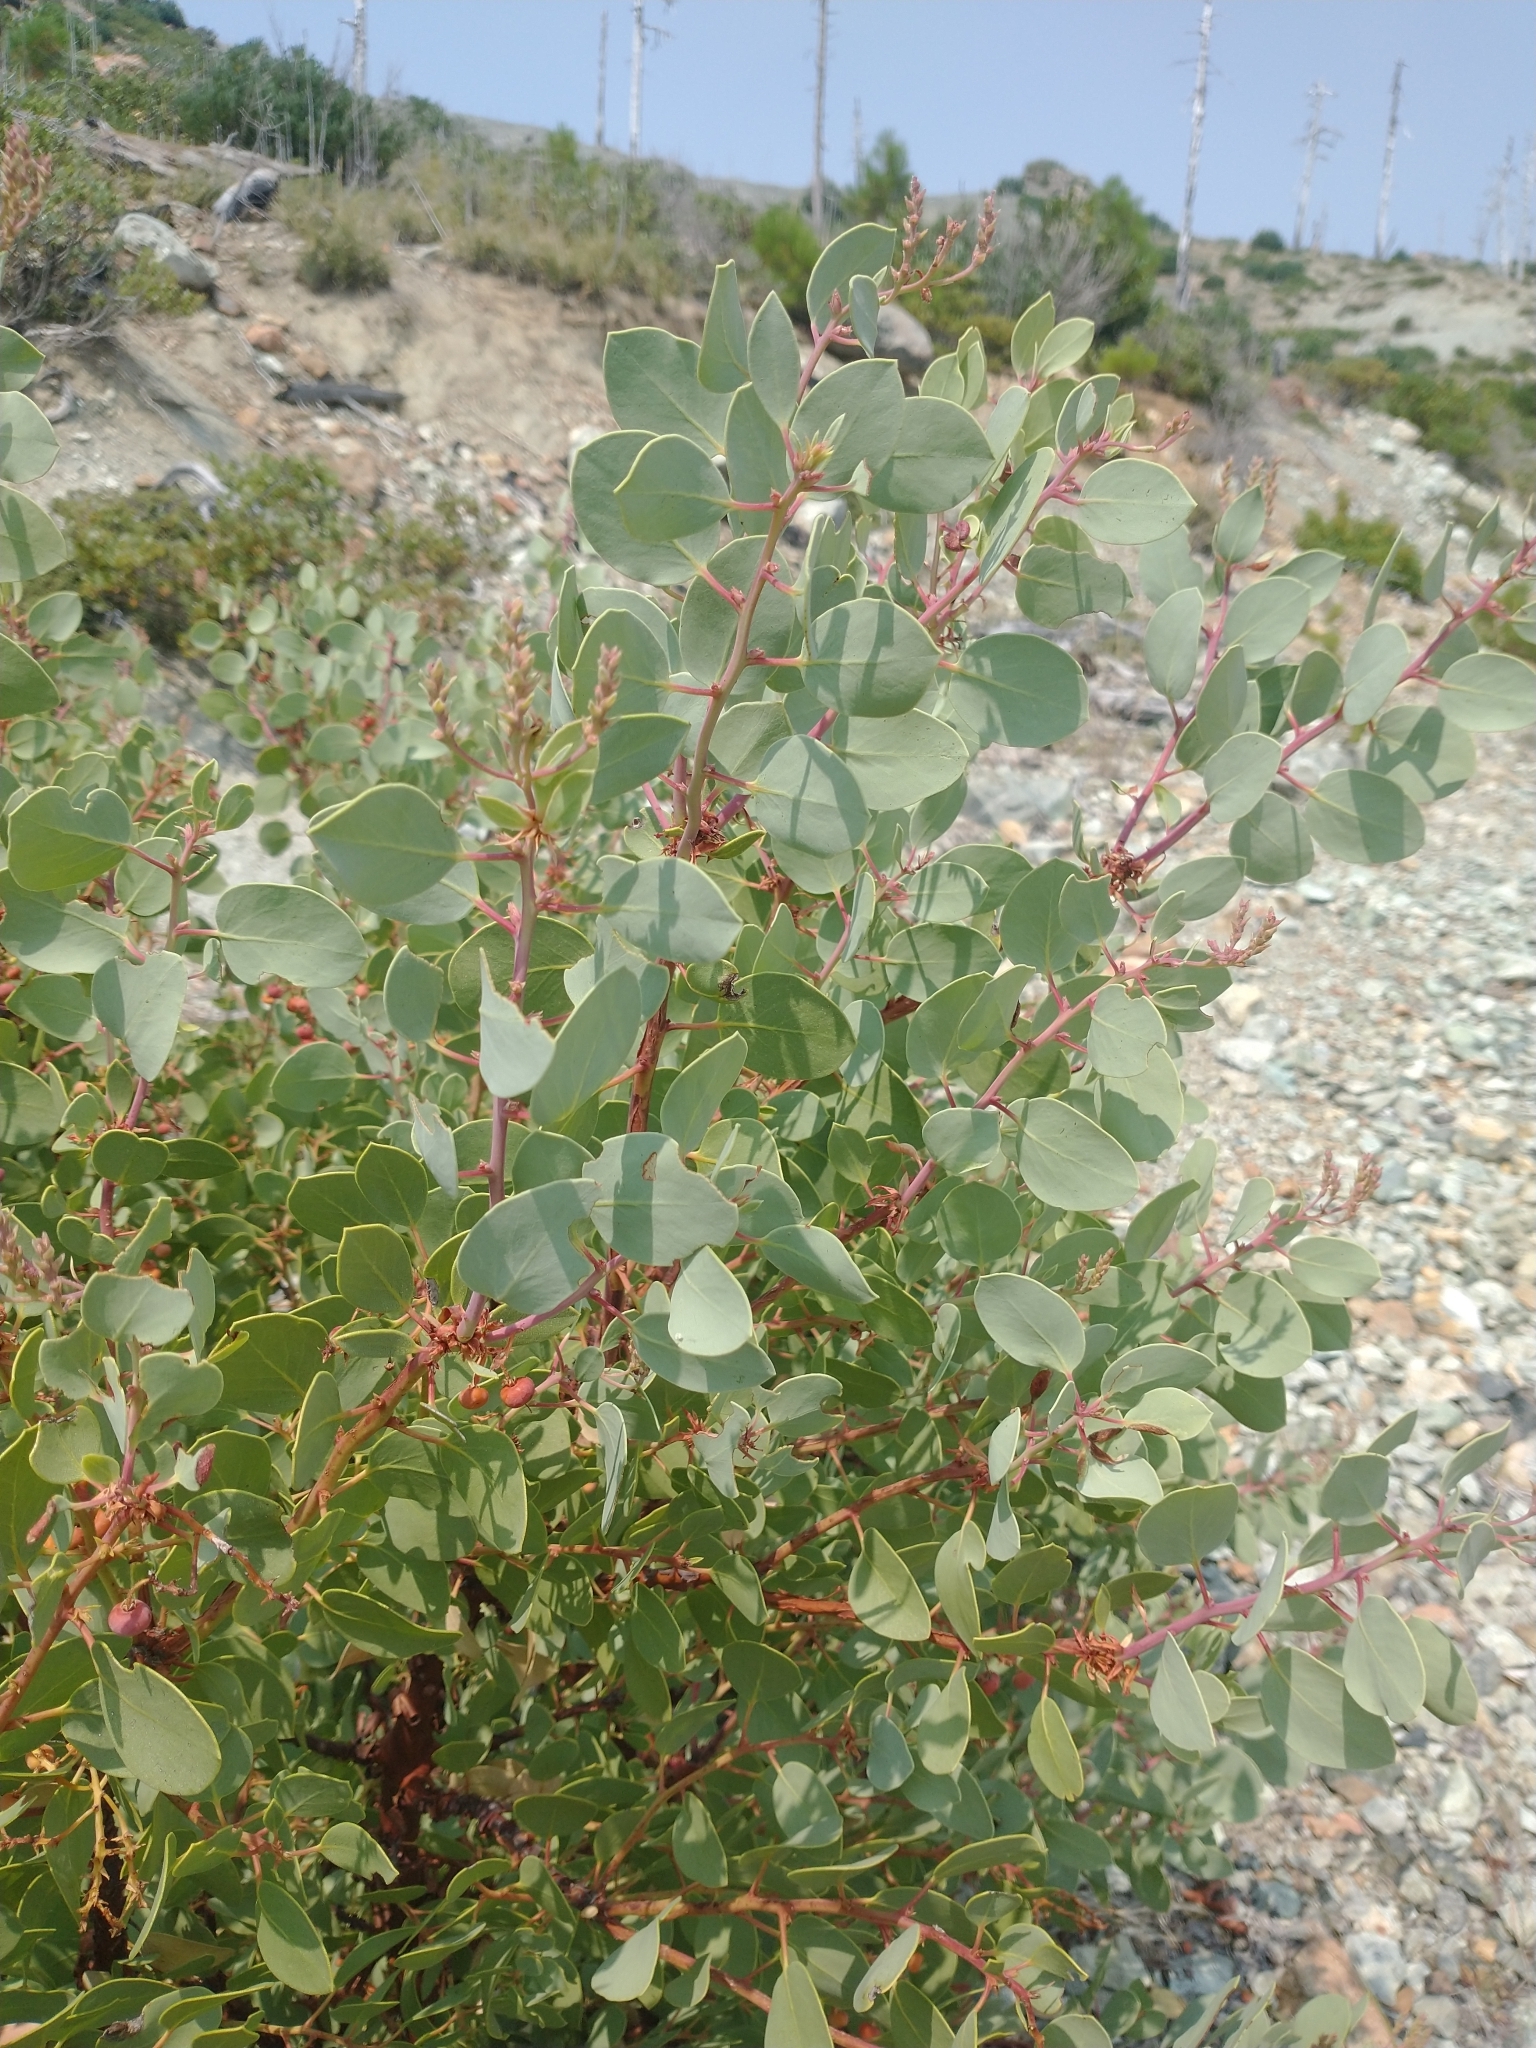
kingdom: Plantae
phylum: Tracheophyta
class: Magnoliopsida
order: Ericales
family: Ericaceae
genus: Arctostaphylos
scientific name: Arctostaphylos viscida
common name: White-leaf manzanita
